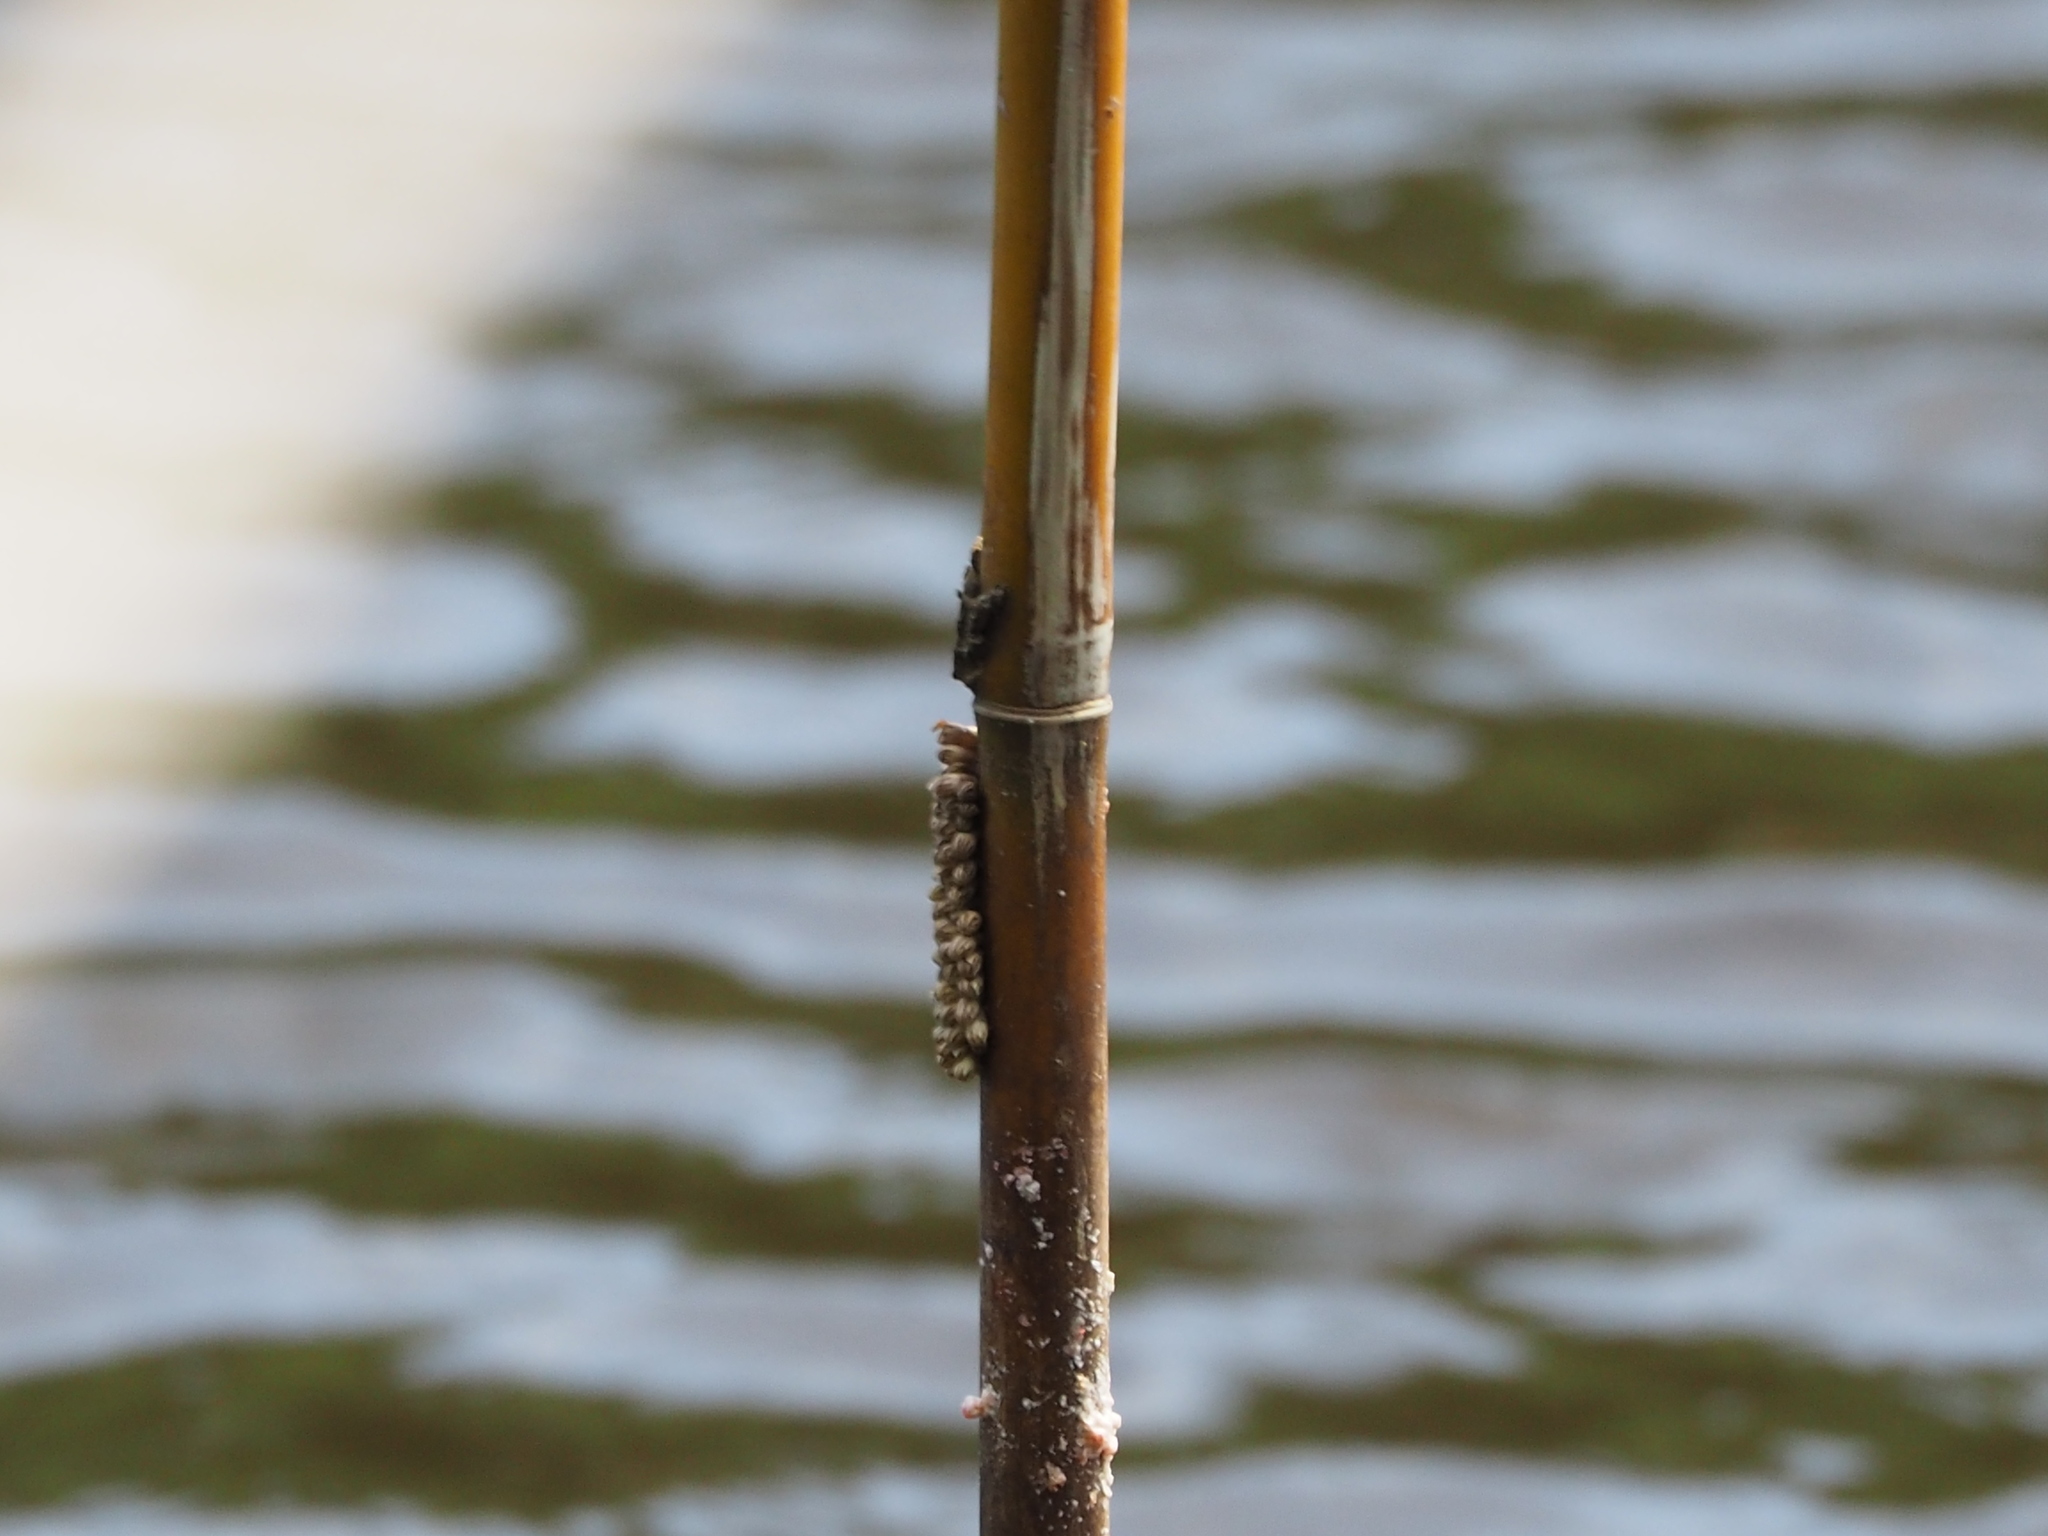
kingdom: Animalia
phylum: Arthropoda
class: Insecta
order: Hemiptera
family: Belostomatidae
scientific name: Belostomatidae
